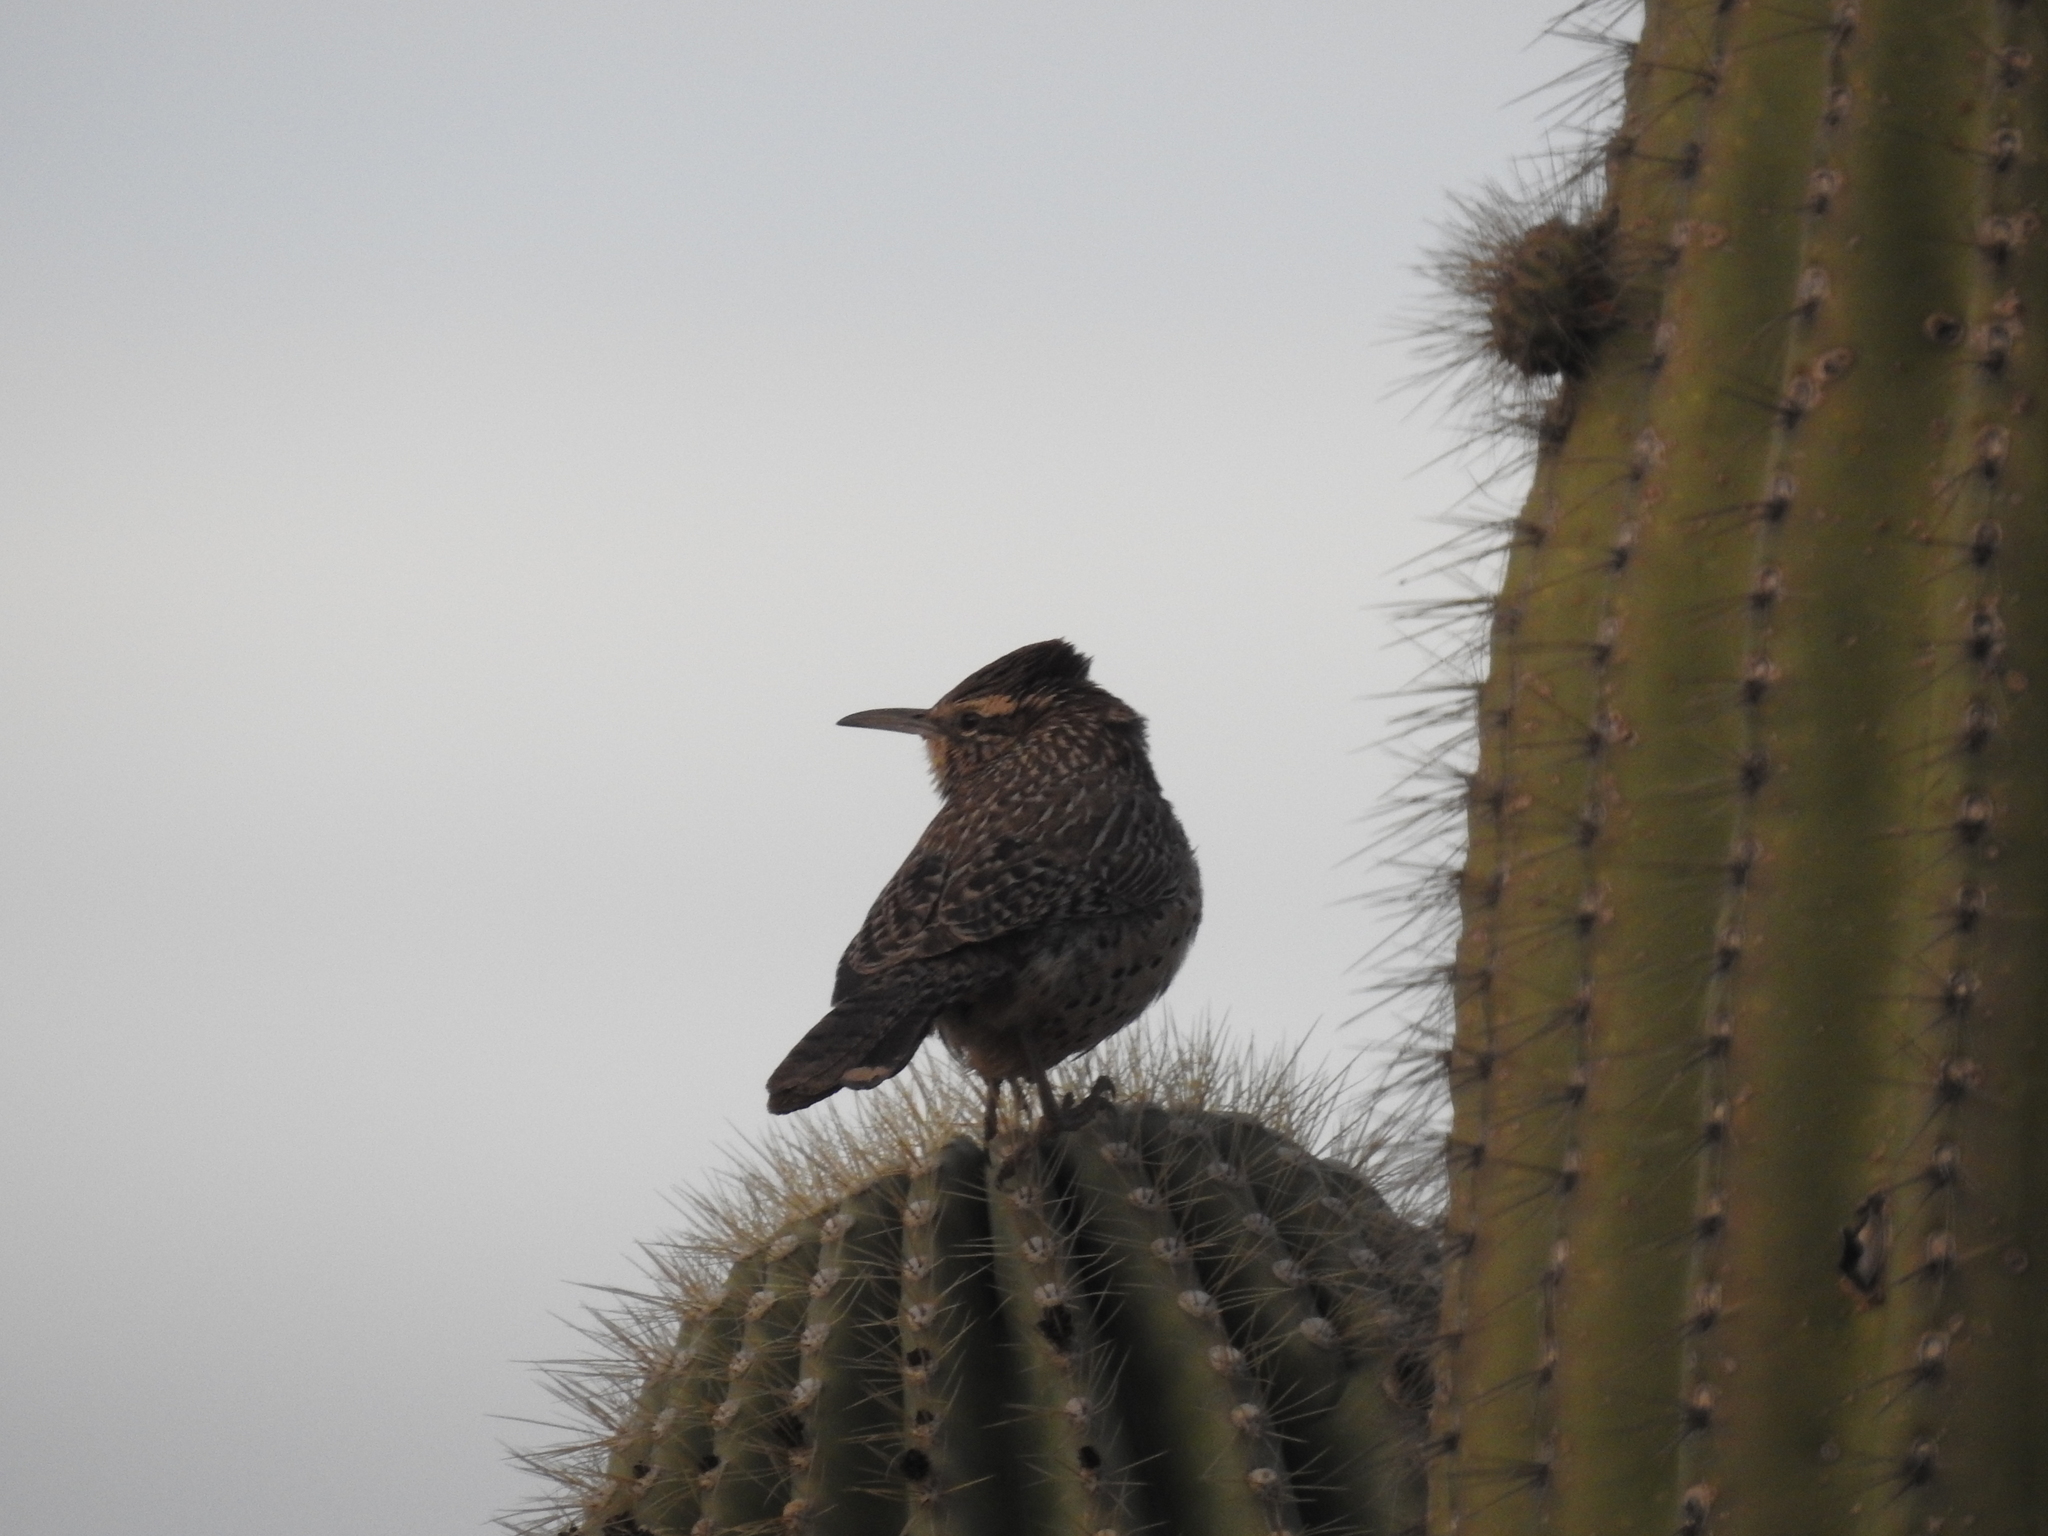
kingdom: Animalia
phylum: Chordata
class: Aves
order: Passeriformes
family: Troglodytidae
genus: Campylorhynchus
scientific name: Campylorhynchus brunneicapillus
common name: Cactus wren
